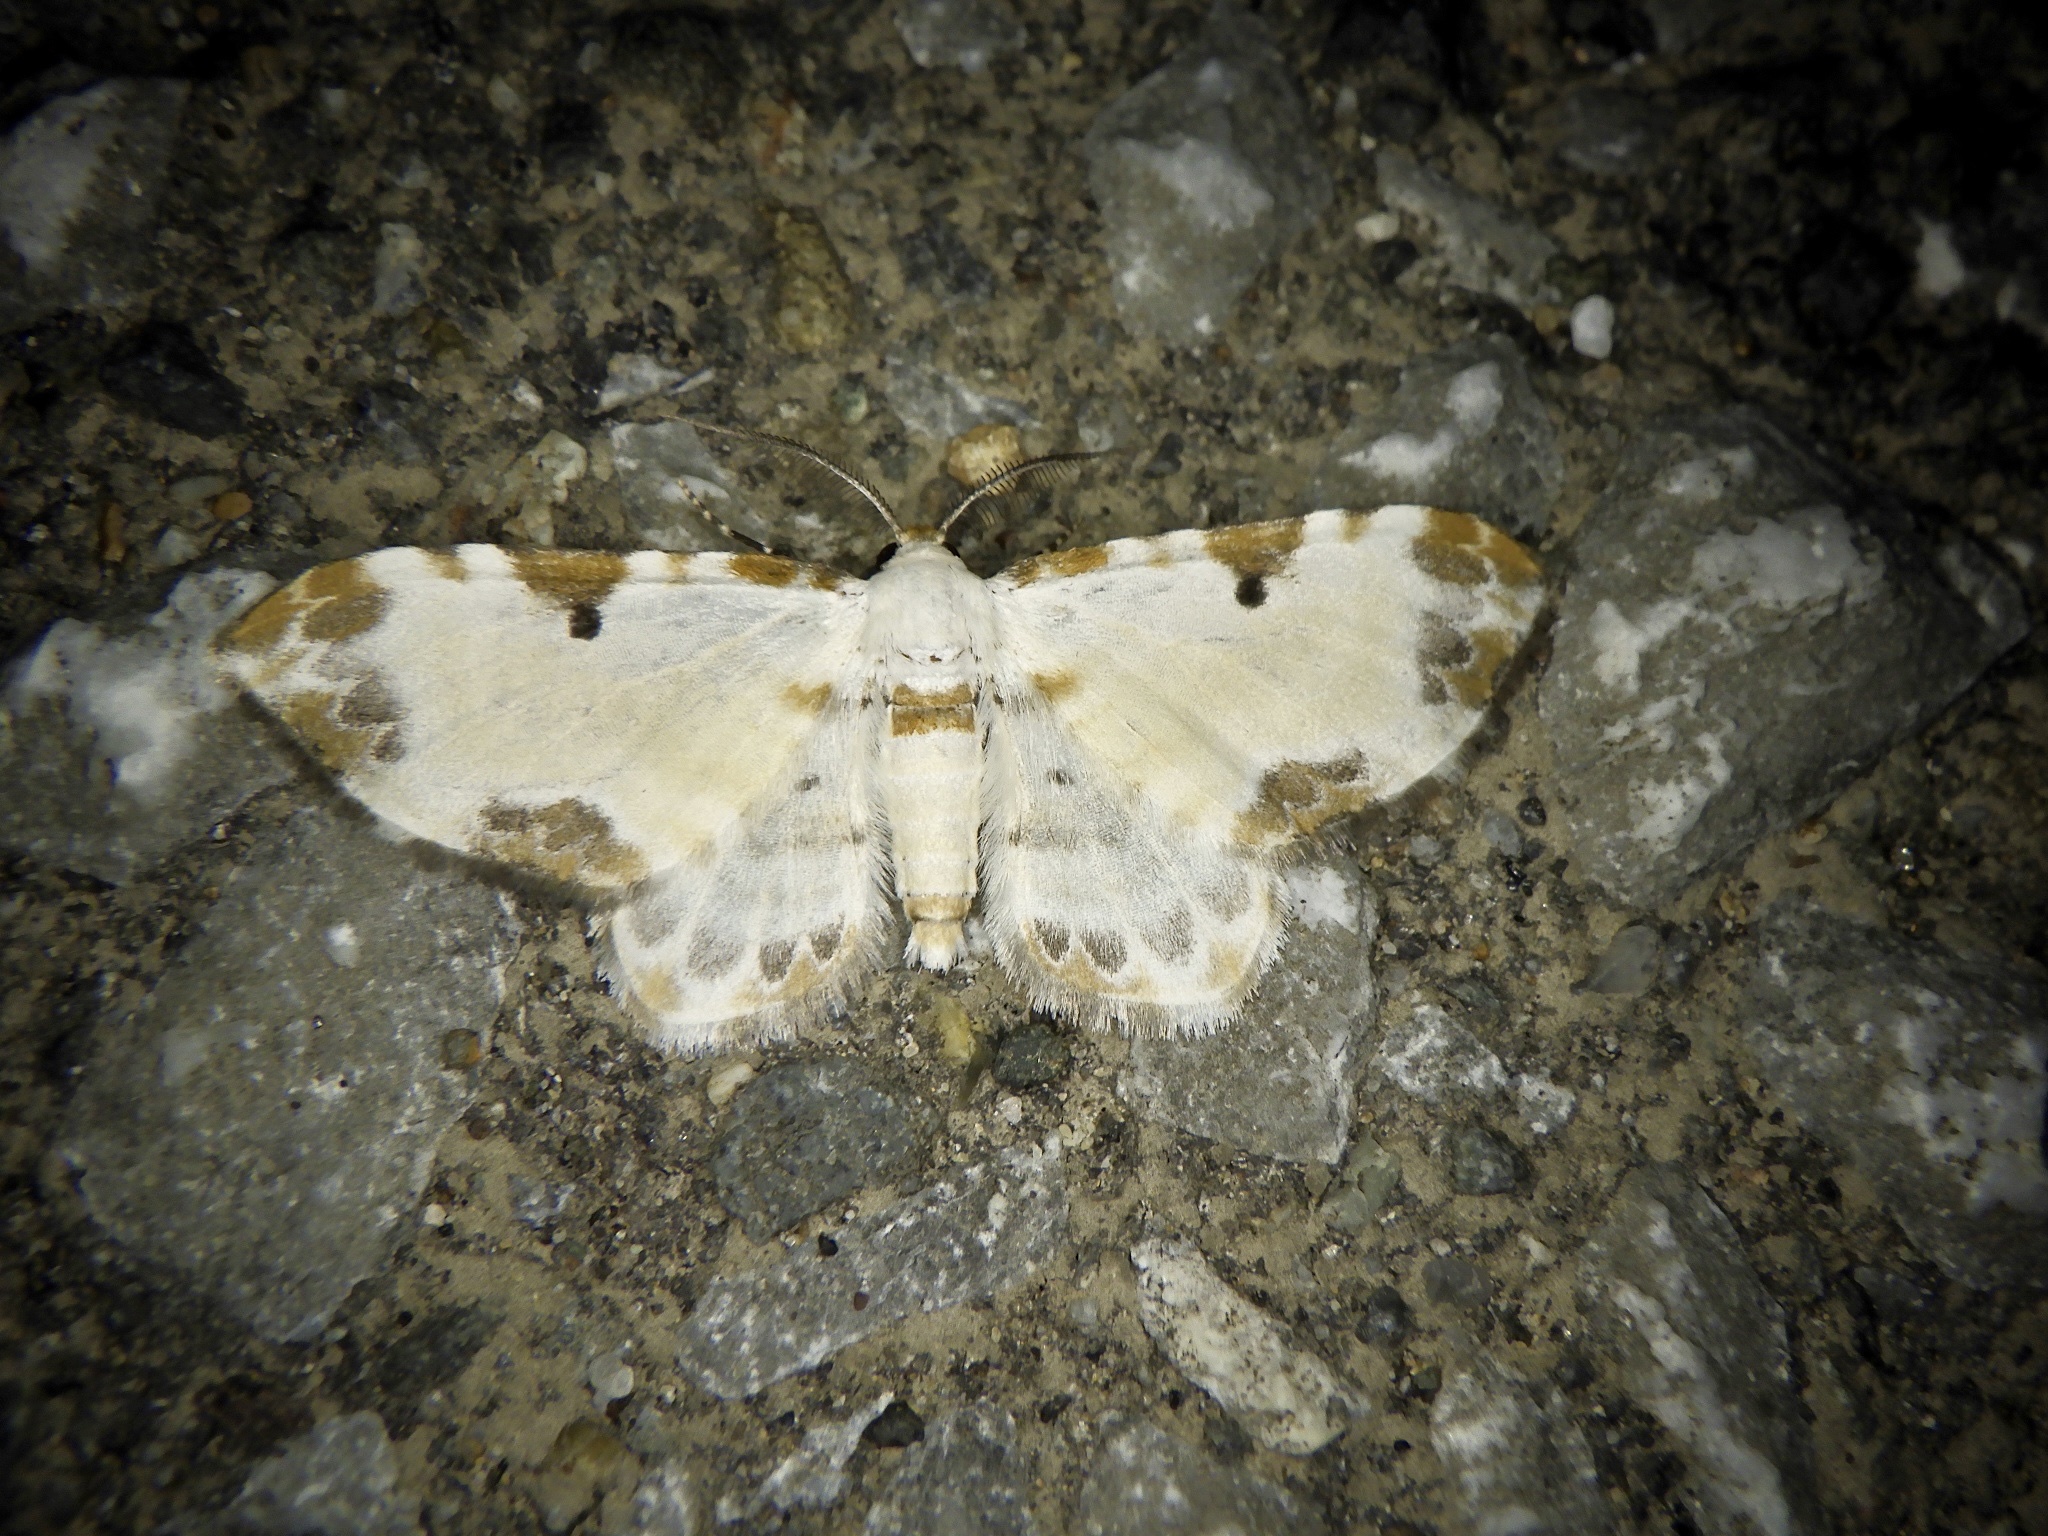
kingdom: Animalia
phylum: Arthropoda
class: Insecta
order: Lepidoptera
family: Geometridae
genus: Tyloptera
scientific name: Tyloptera bella
